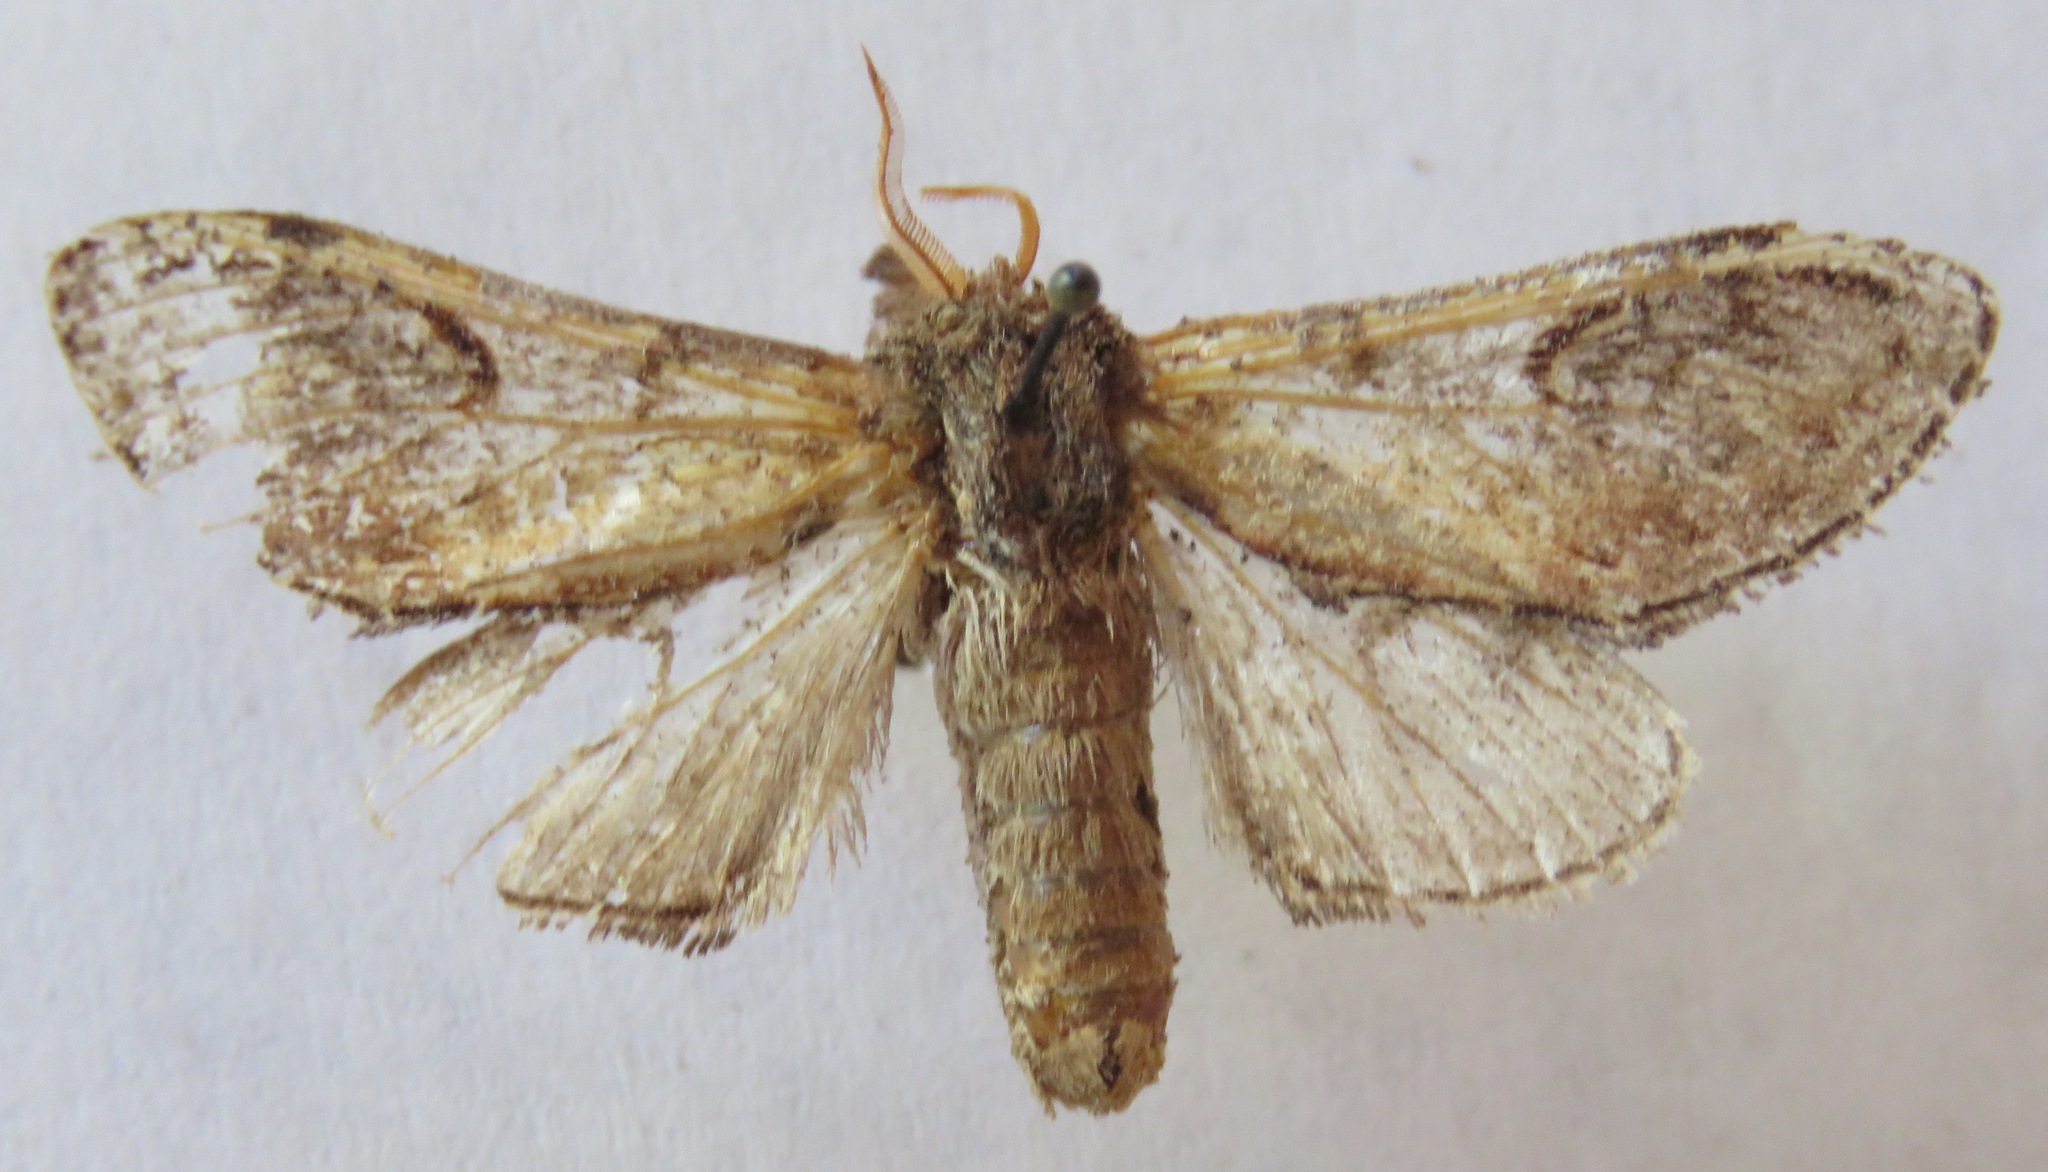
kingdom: Animalia
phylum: Arthropoda
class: Insecta
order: Lepidoptera
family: Notodontidae
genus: Notodonta
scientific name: Notodonta ziczac
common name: Pebble prominent
